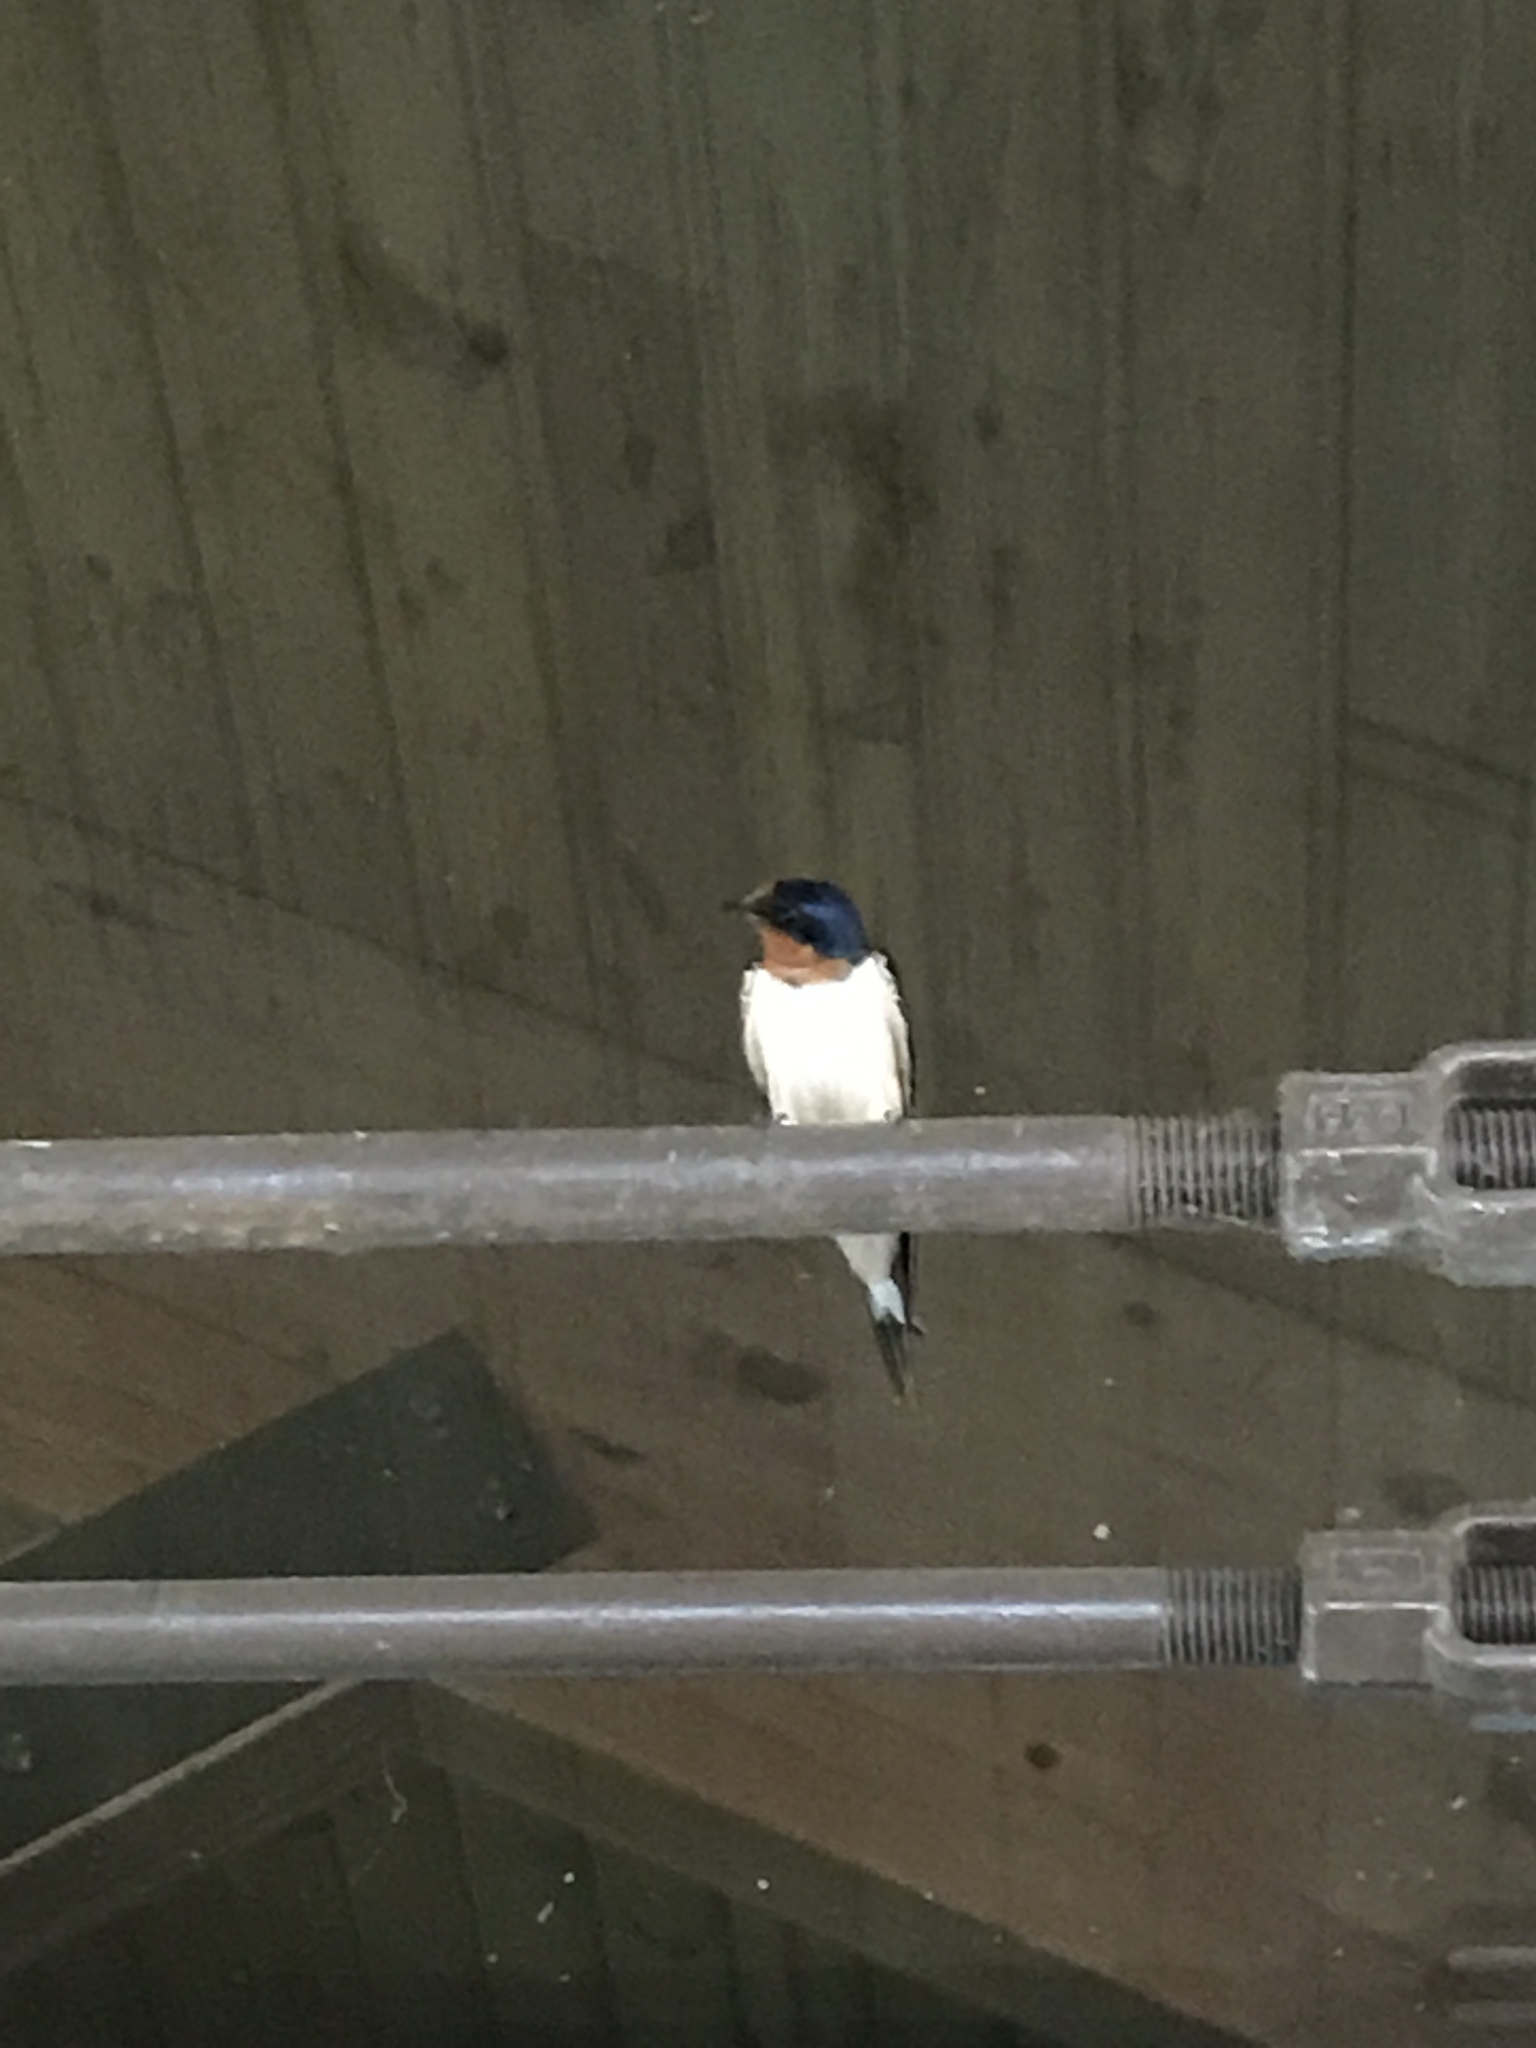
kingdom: Animalia
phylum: Chordata
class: Aves
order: Passeriformes
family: Hirundinidae
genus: Hirundo
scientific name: Hirundo rustica
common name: Barn swallow
